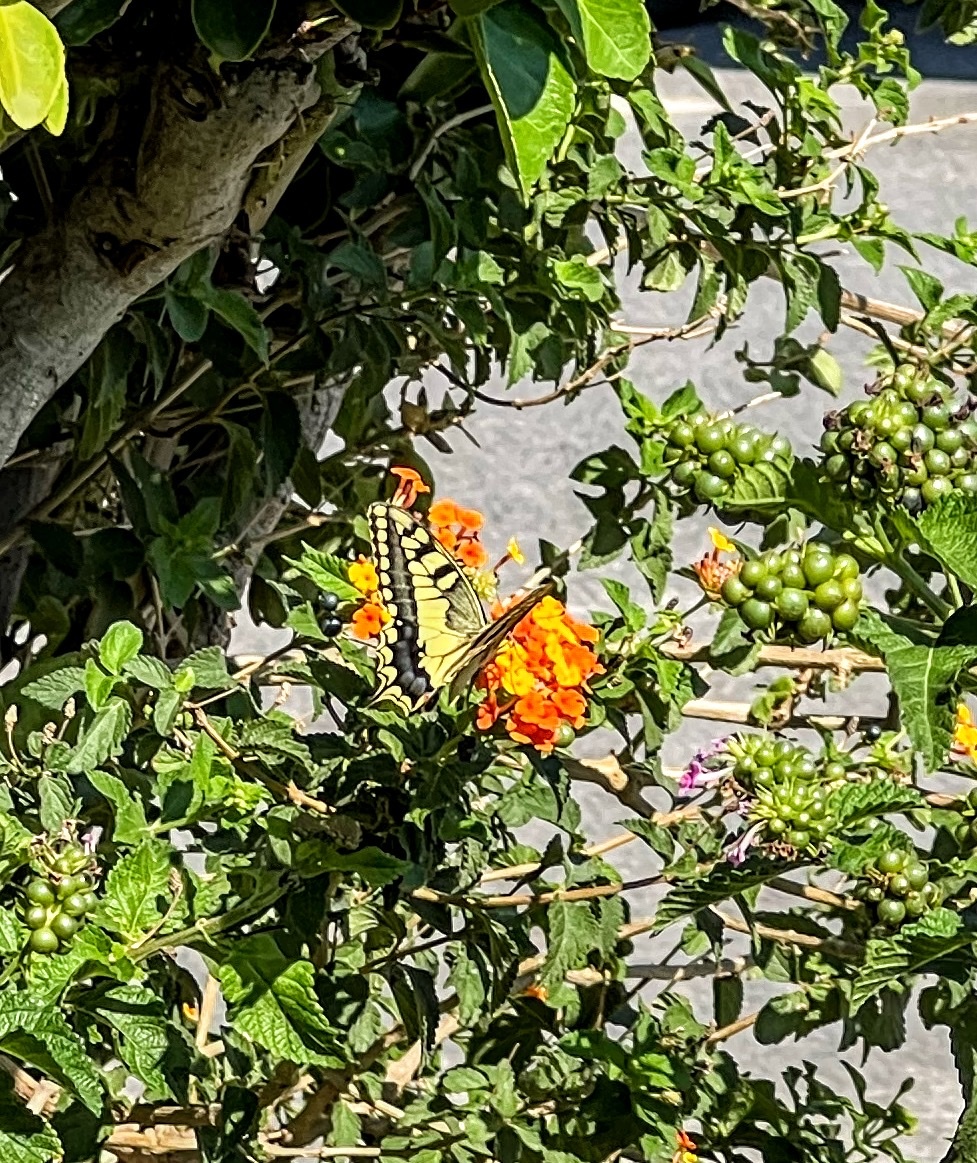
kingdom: Animalia
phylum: Arthropoda
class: Insecta
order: Lepidoptera
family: Papilionidae
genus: Papilio
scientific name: Papilio machaon
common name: Swallowtail
